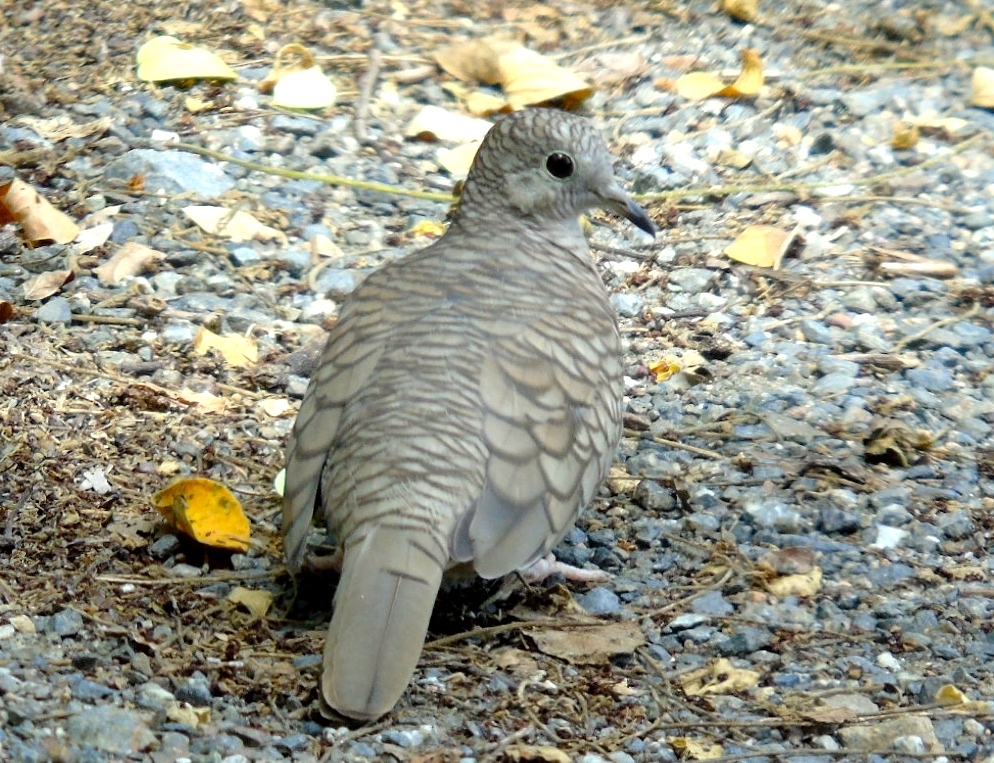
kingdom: Animalia
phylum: Chordata
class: Aves
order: Columbiformes
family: Columbidae
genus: Columbina
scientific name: Columbina inca
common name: Inca dove
